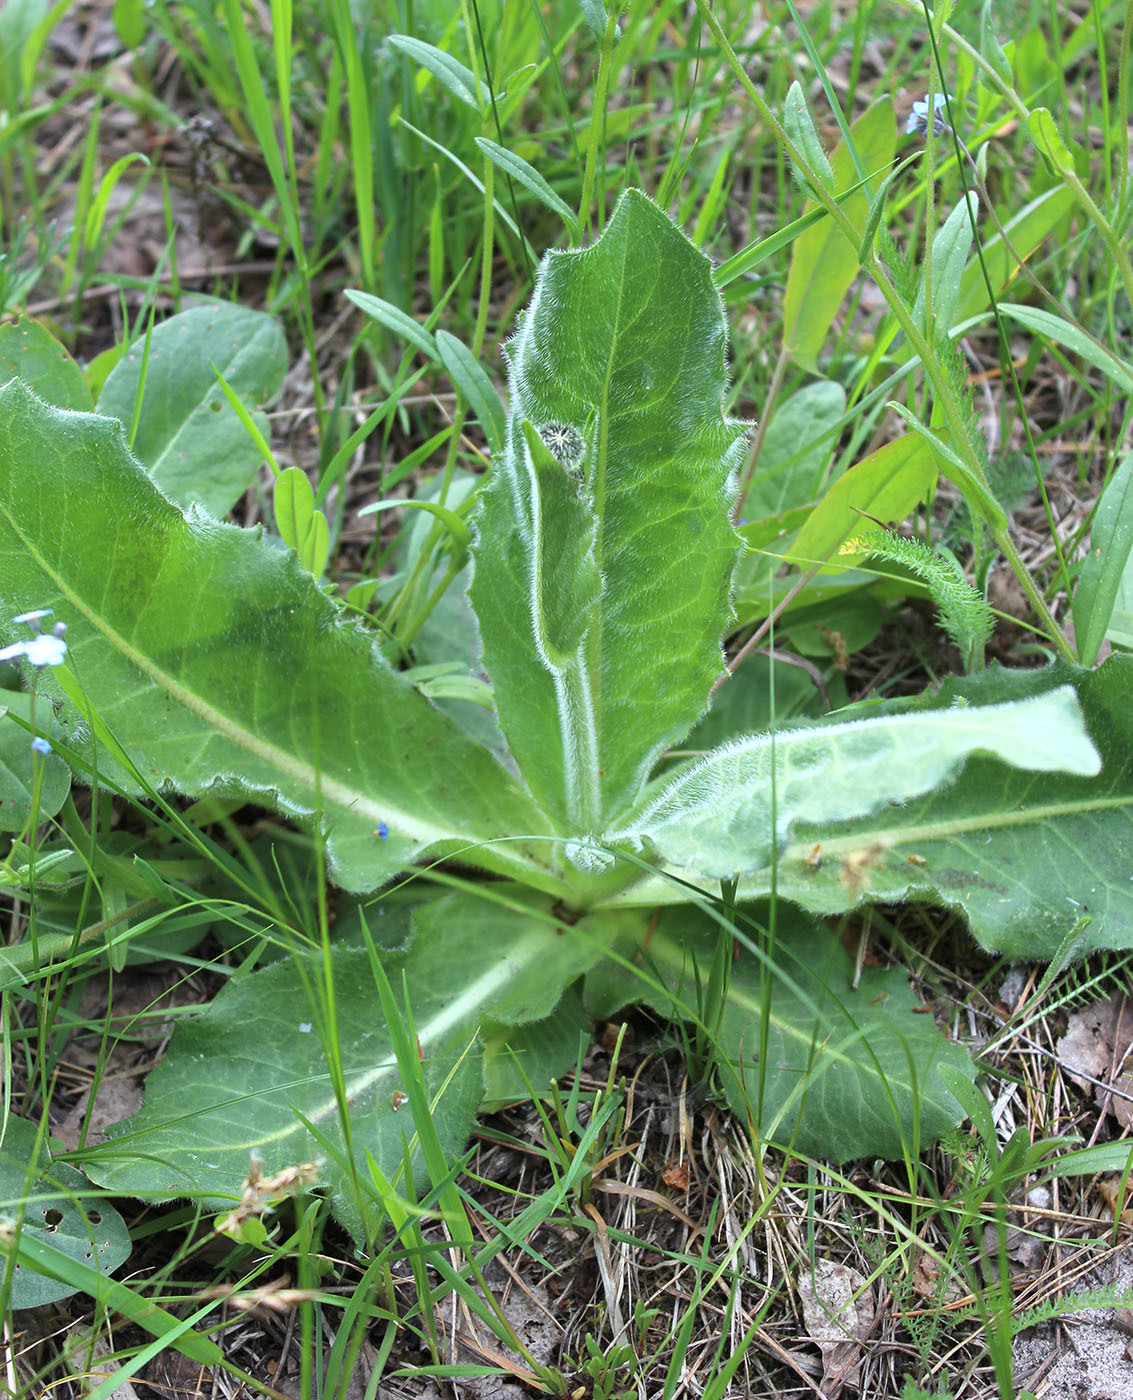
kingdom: Plantae
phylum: Tracheophyta
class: Magnoliopsida
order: Asterales
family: Asteraceae
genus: Trommsdorffia
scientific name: Trommsdorffia maculata
